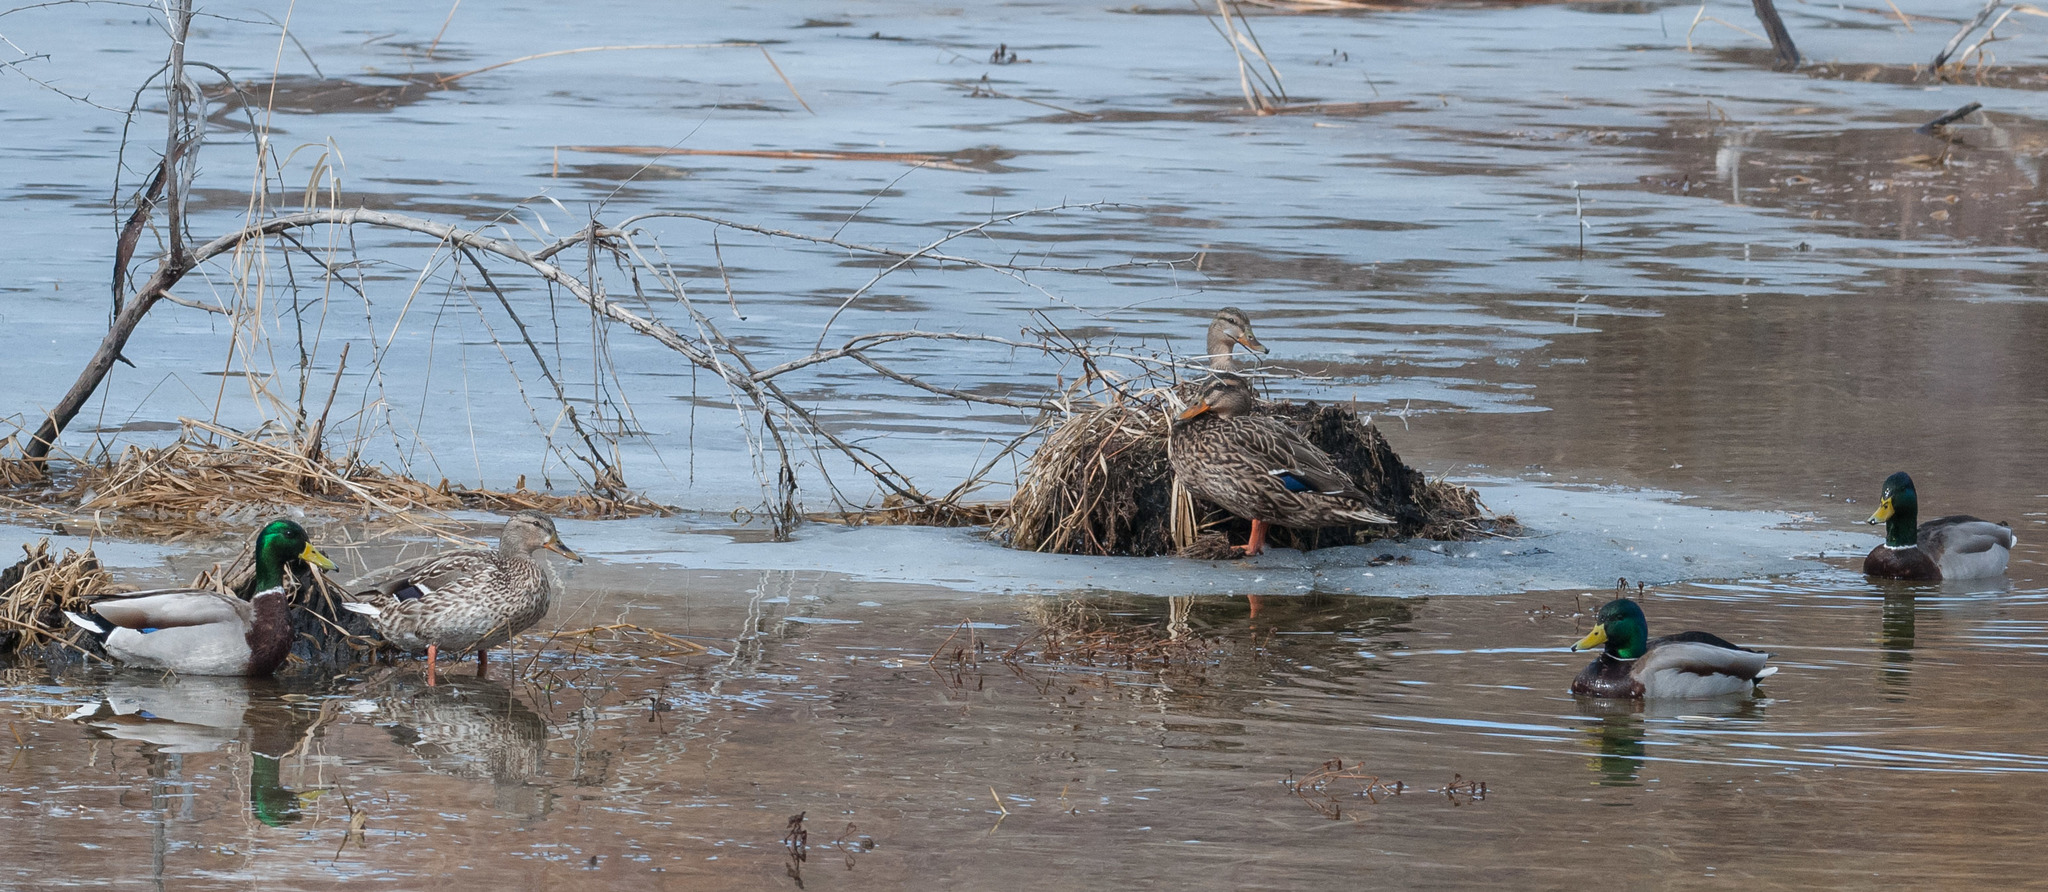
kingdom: Animalia
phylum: Chordata
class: Aves
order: Anseriformes
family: Anatidae
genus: Anas
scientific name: Anas platyrhynchos
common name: Mallard
